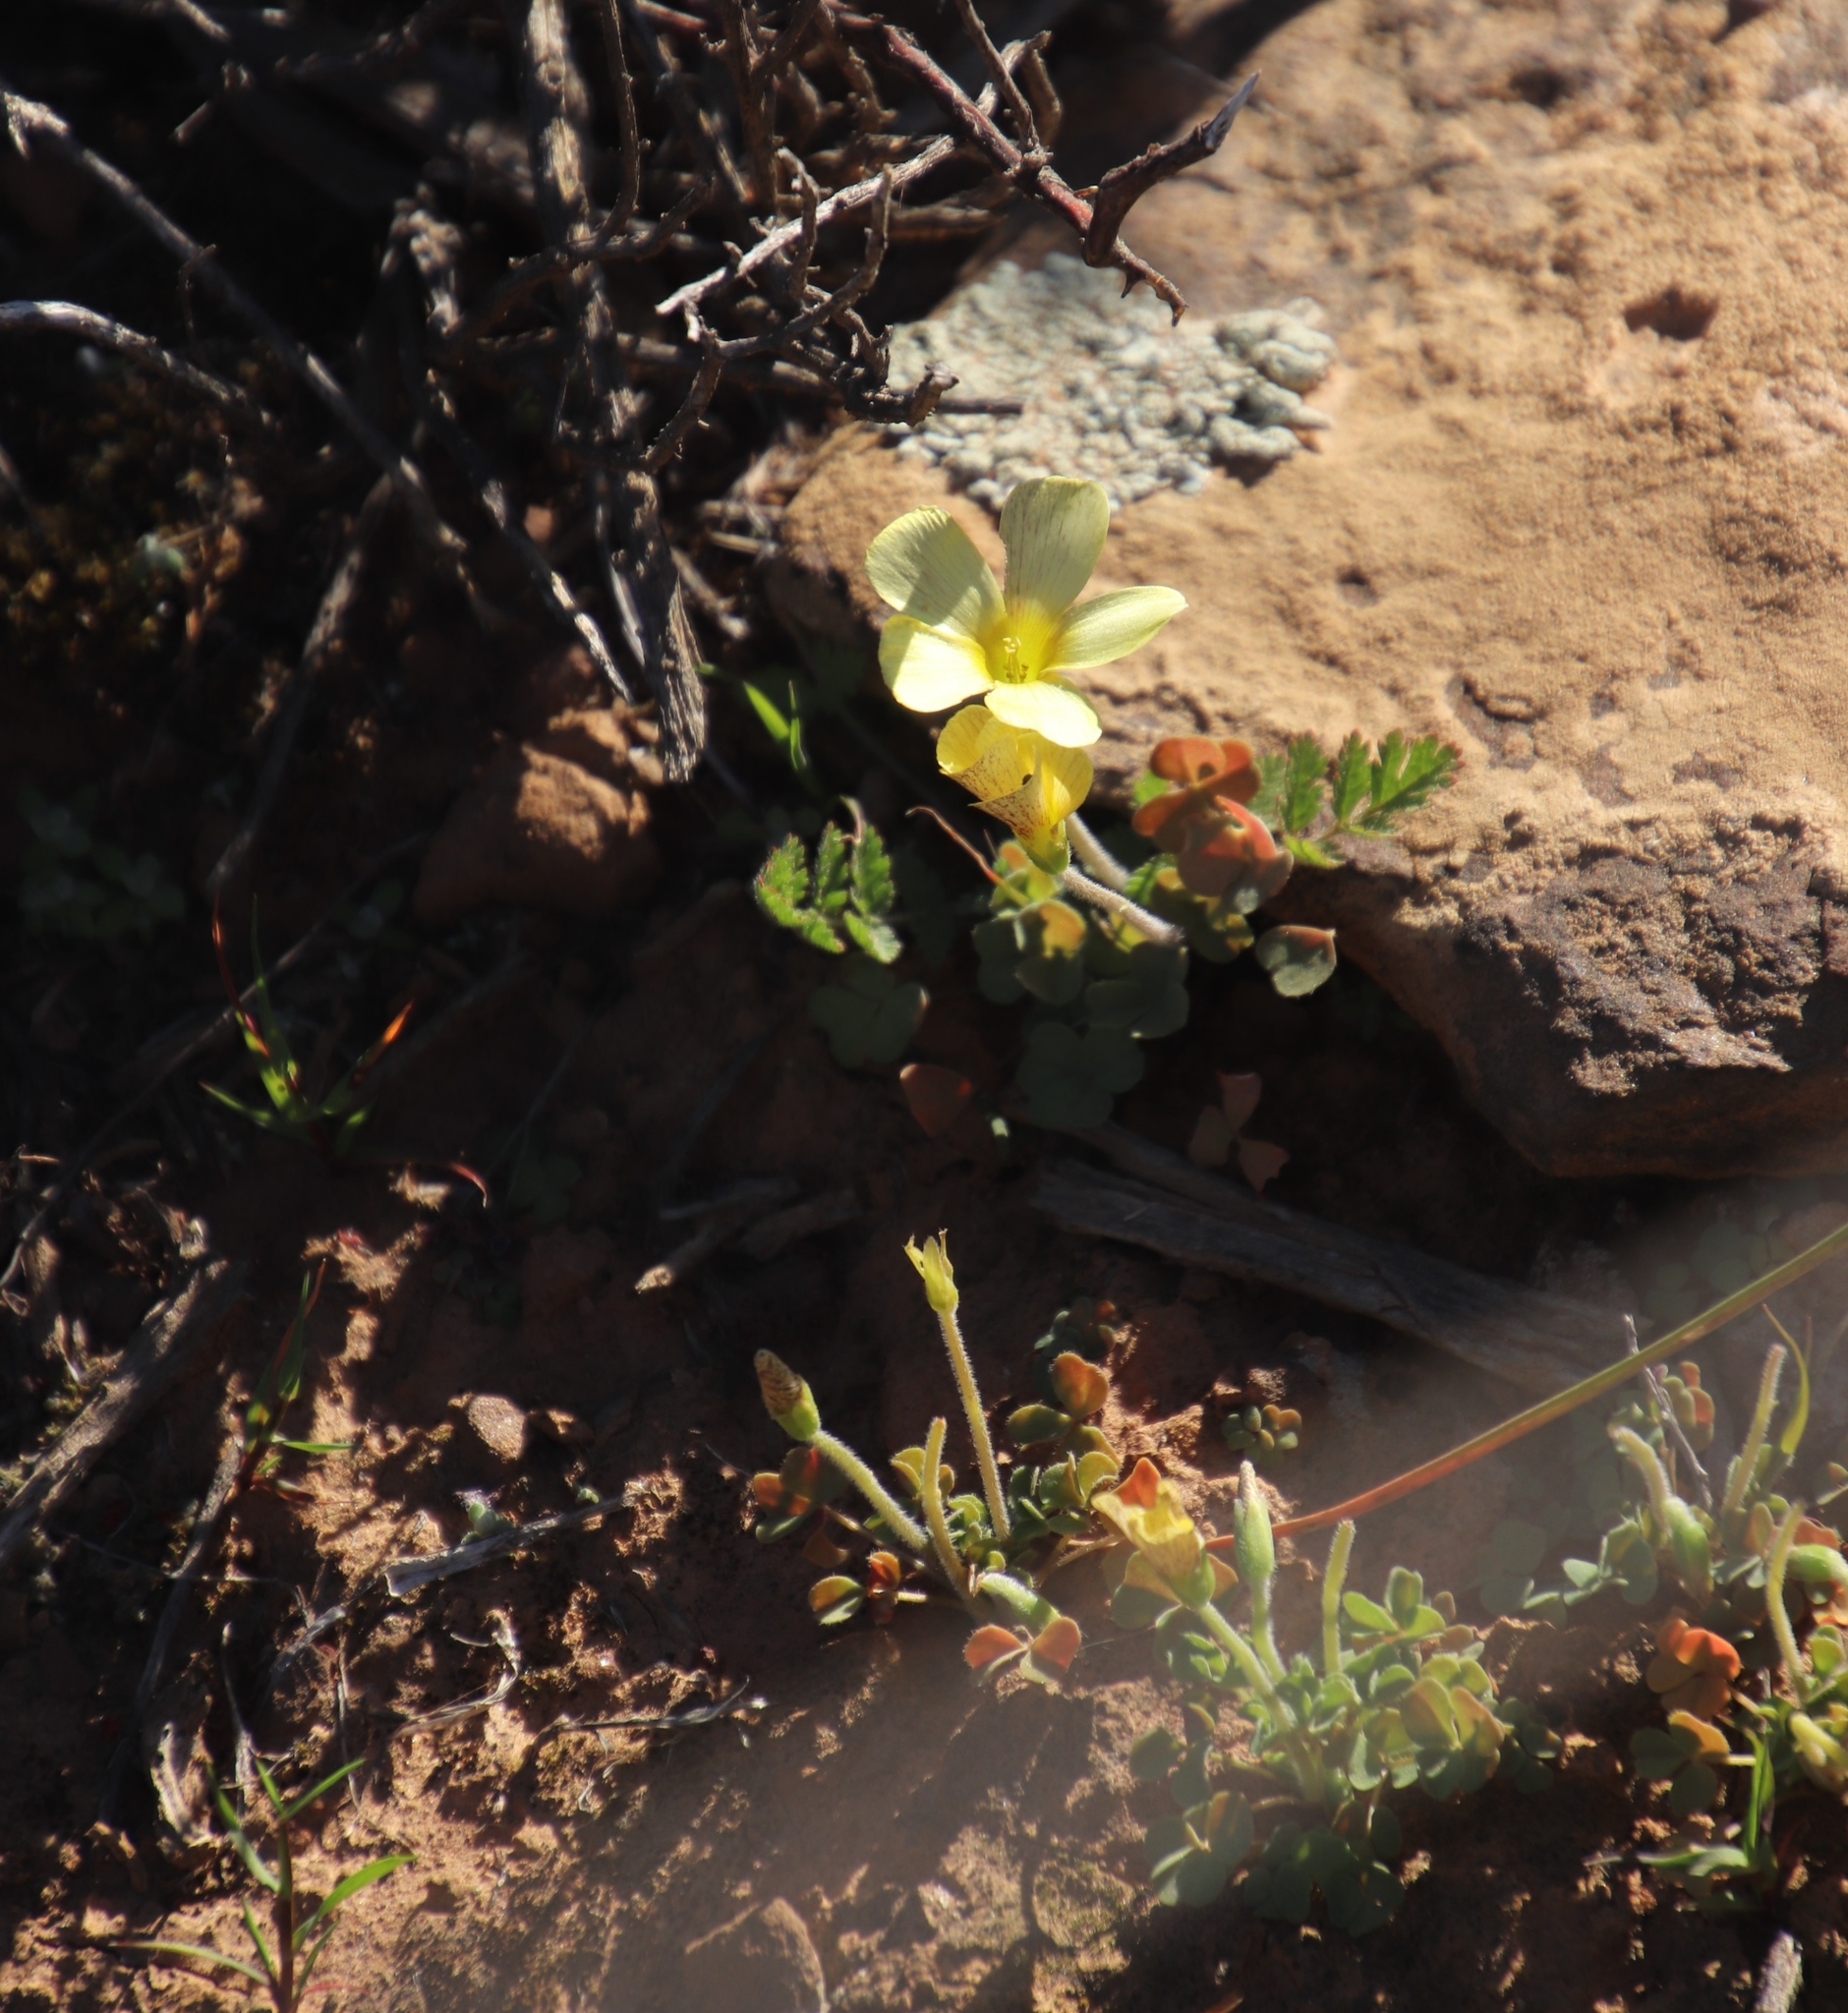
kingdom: Plantae
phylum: Tracheophyta
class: Magnoliopsida
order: Oxalidales
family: Oxalidaceae
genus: Oxalis
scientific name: Oxalis obtusa
